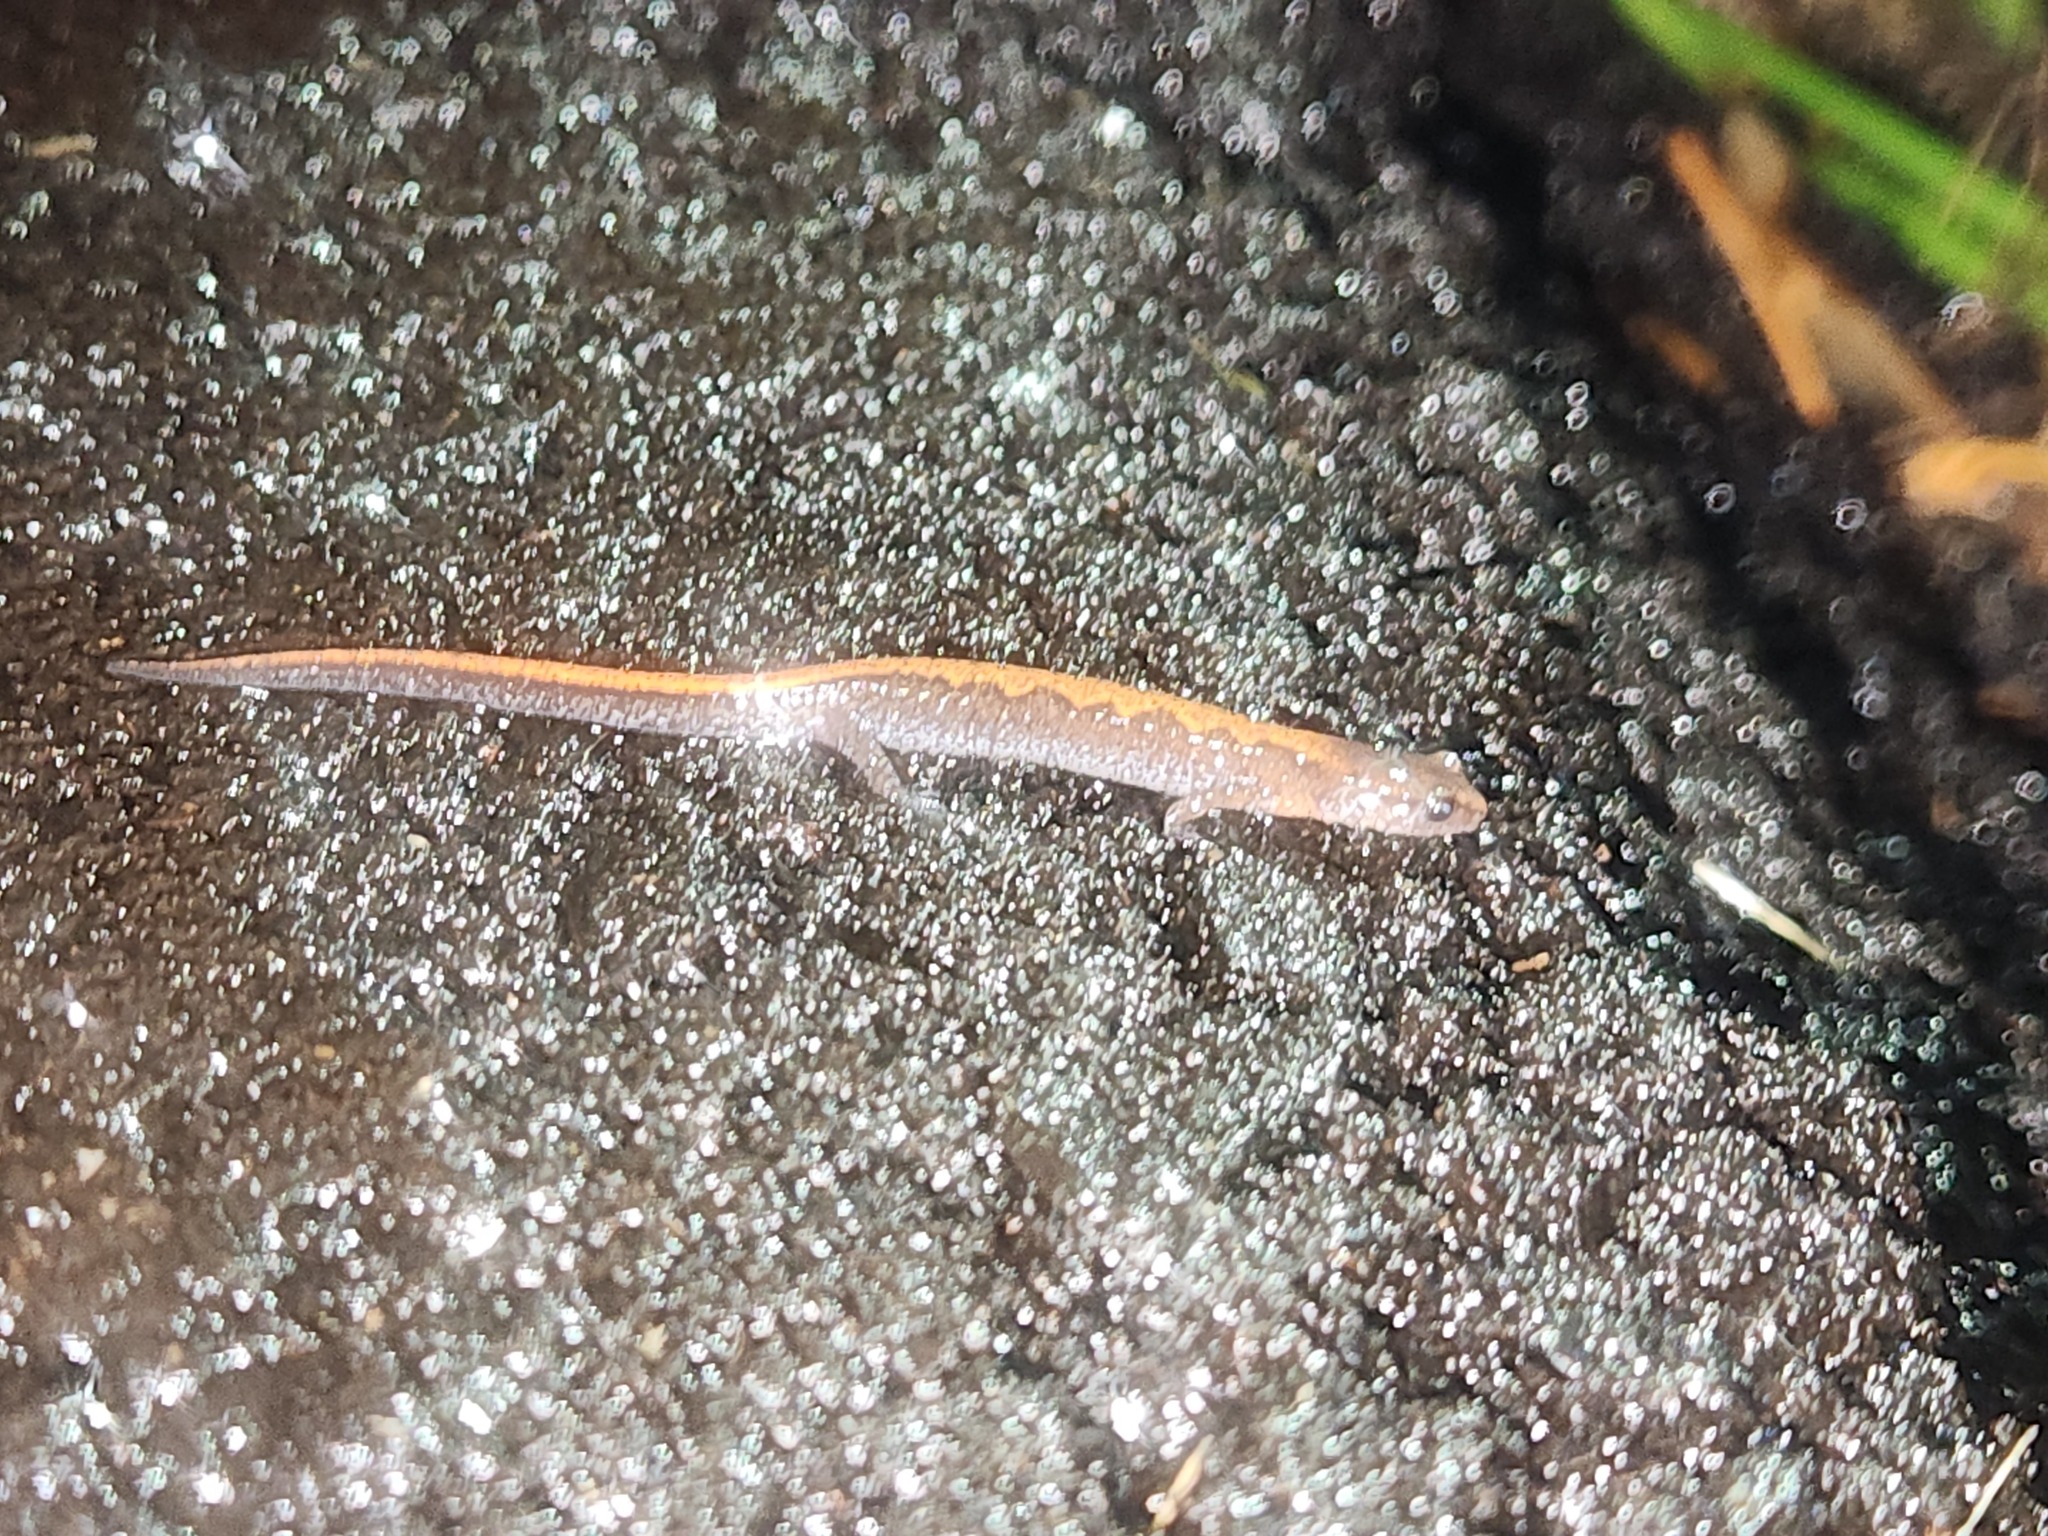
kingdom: Animalia
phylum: Chordata
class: Amphibia
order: Caudata
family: Plethodontidae
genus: Plethodon
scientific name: Plethodon dorsalis
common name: Northern zigzag salamander
